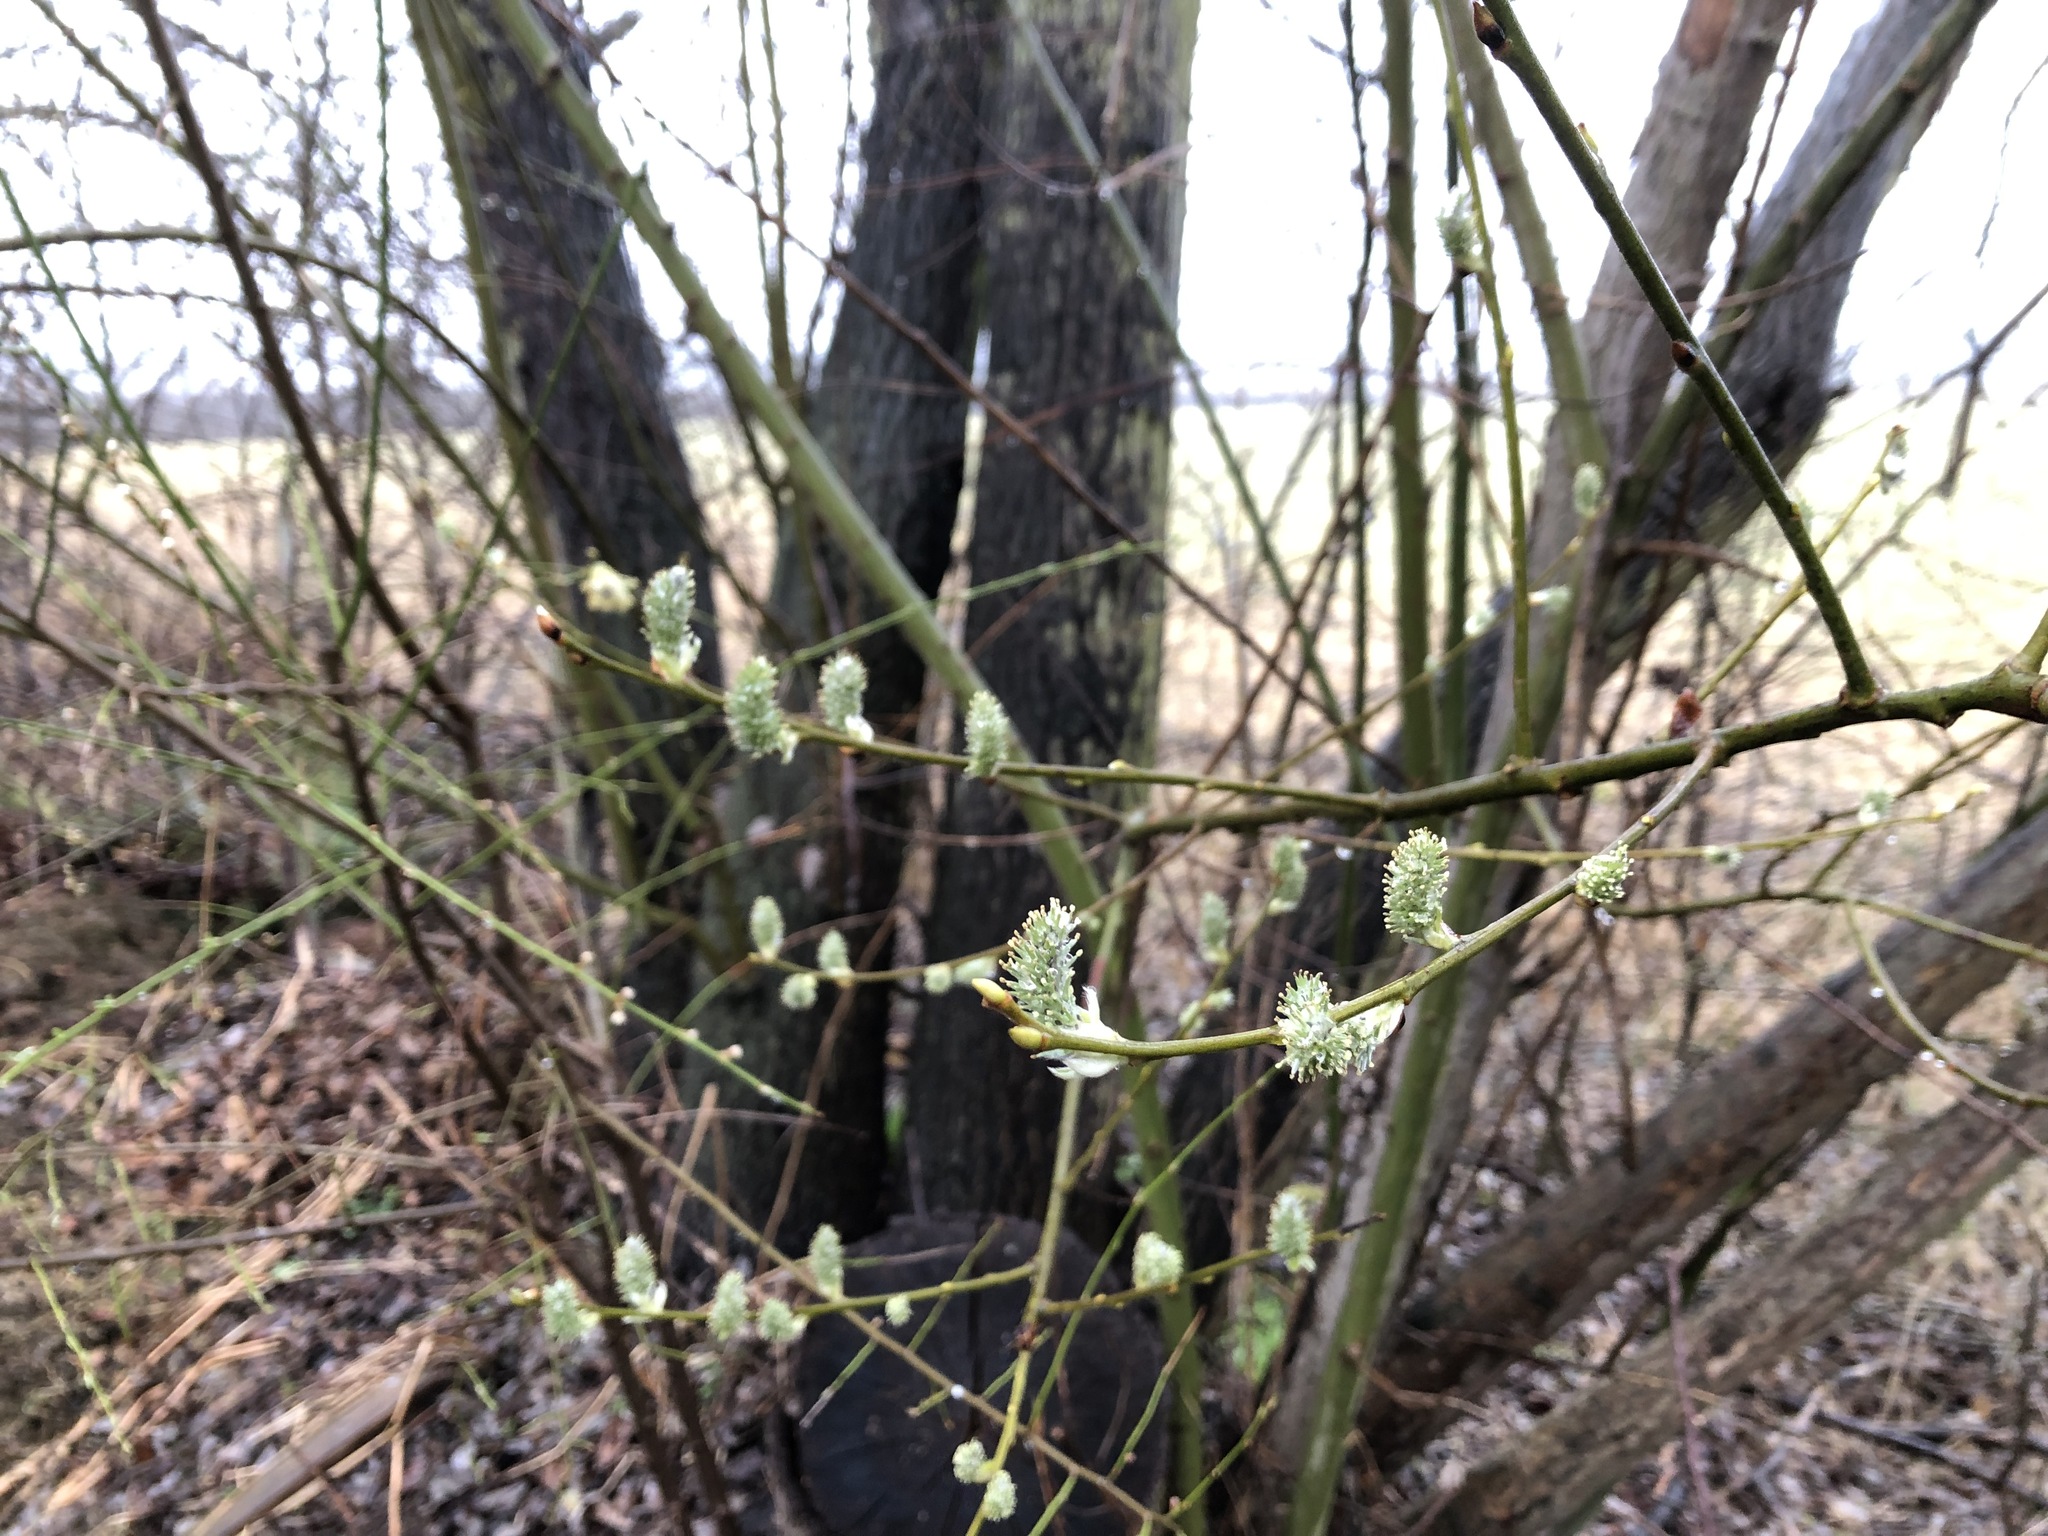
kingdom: Plantae
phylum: Tracheophyta
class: Magnoliopsida
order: Malpighiales
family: Salicaceae
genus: Salix
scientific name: Salix caprea
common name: Goat willow
